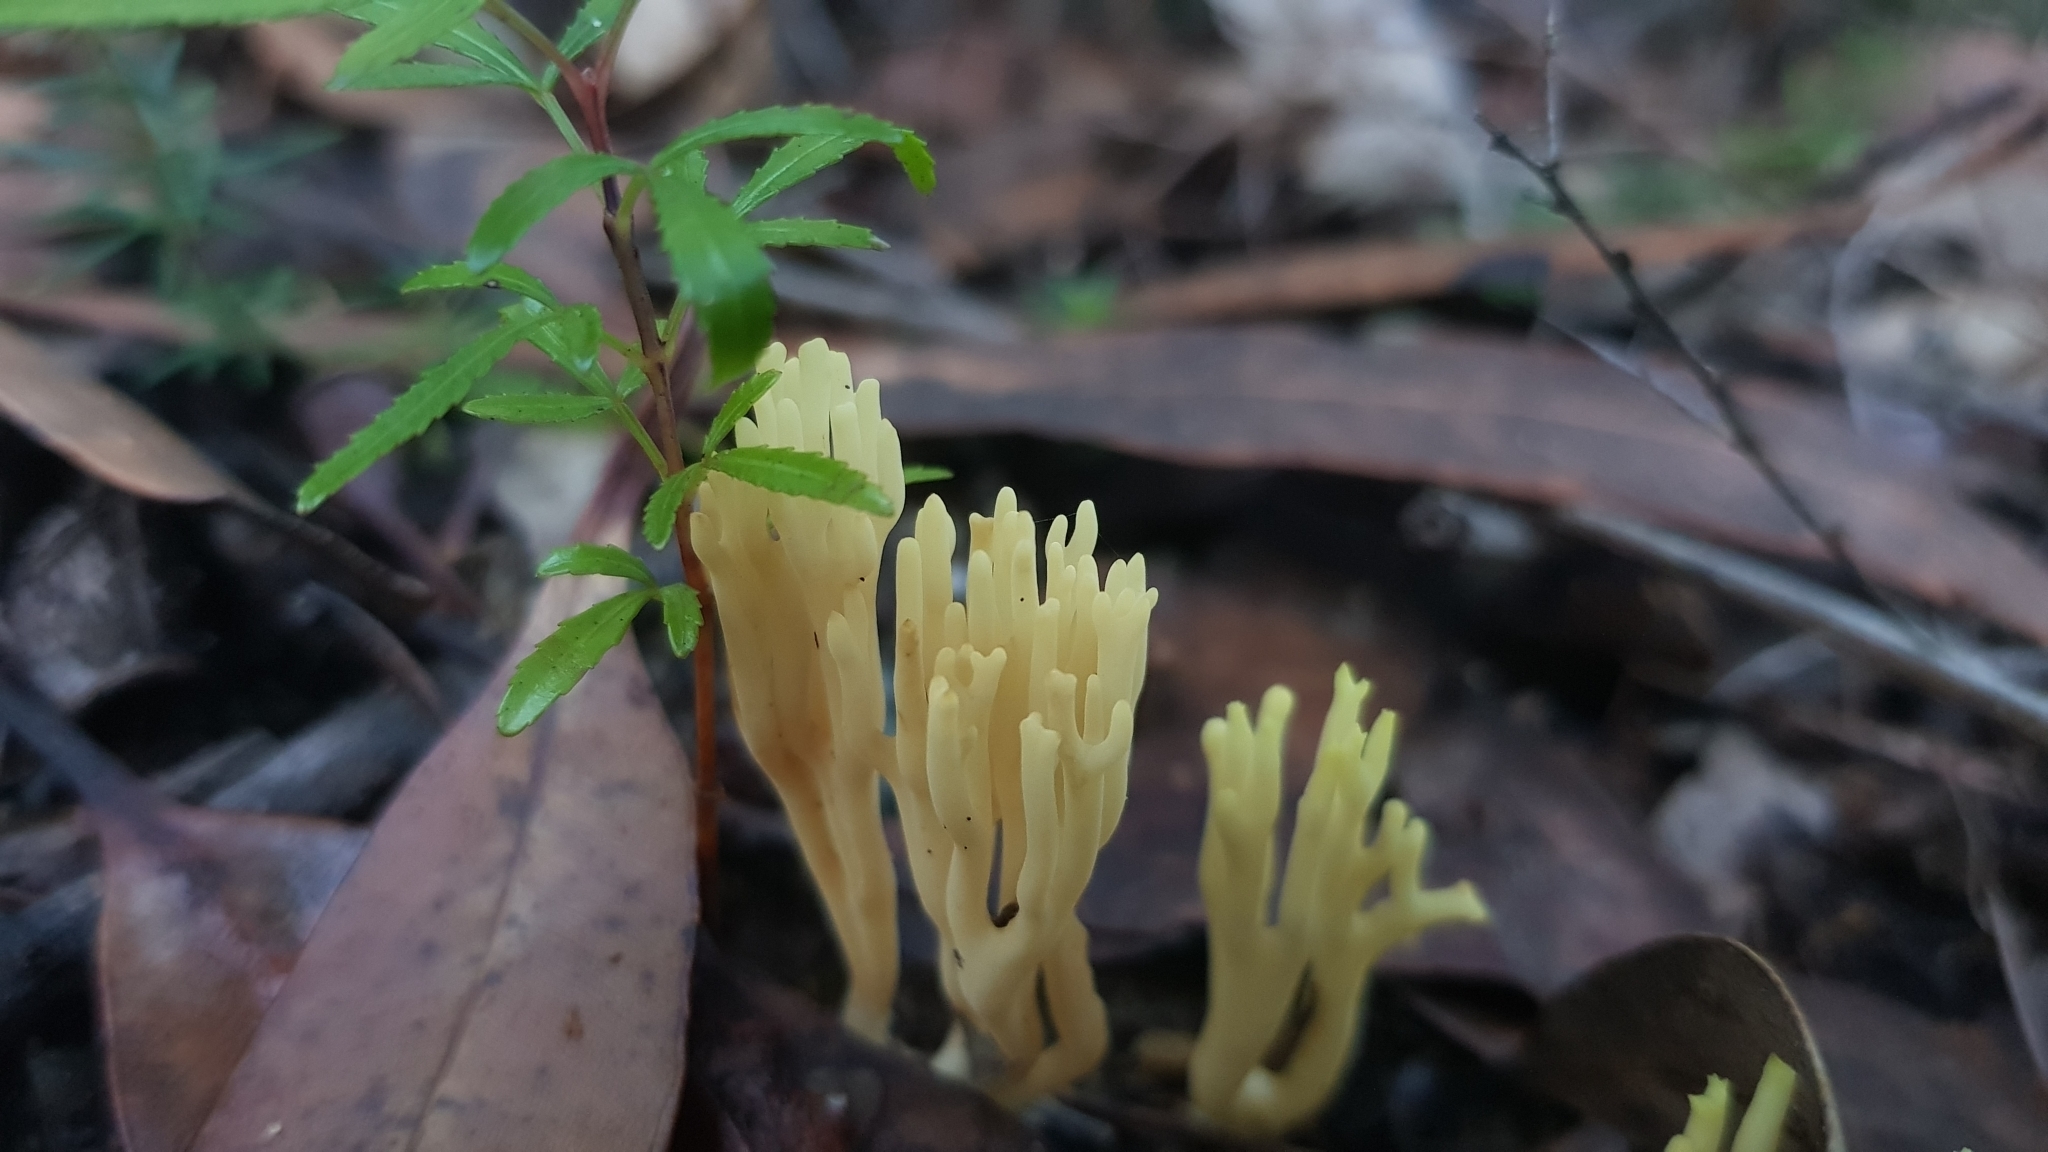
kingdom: Fungi
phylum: Basidiomycota
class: Agaricomycetes
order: Gomphales
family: Gomphaceae
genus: Ramaria
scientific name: Ramaria lorithamnus
